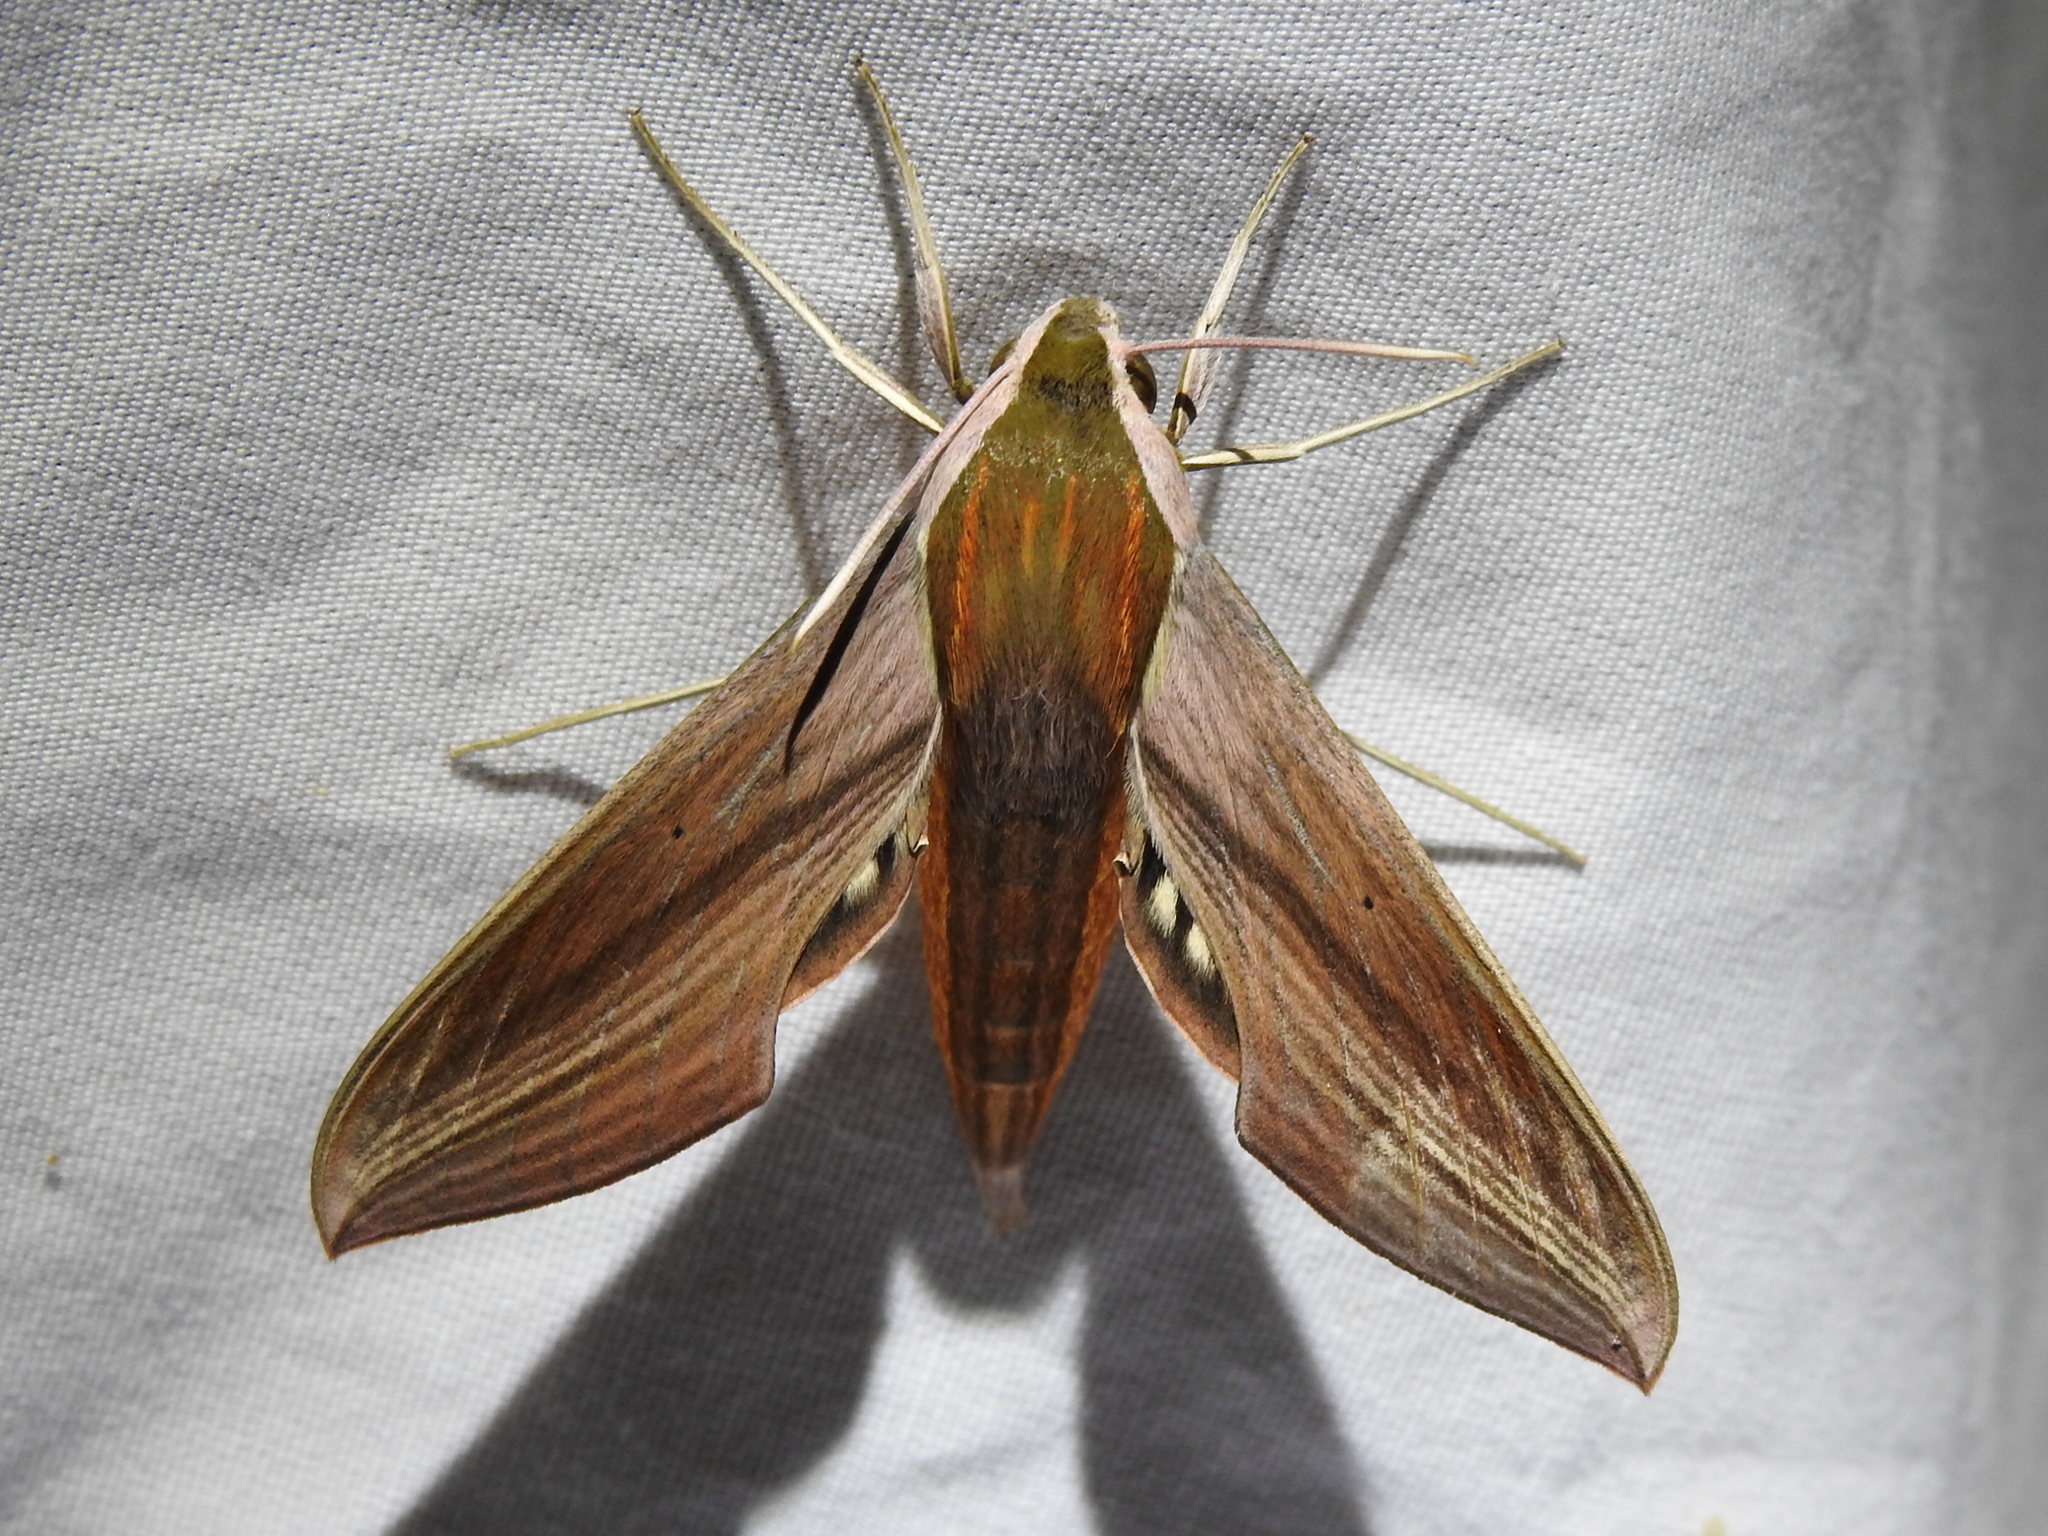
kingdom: Animalia
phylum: Arthropoda
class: Insecta
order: Lepidoptera
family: Sphingidae
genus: Xylophanes
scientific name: Xylophanes tersa
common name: Tersa sphinx
